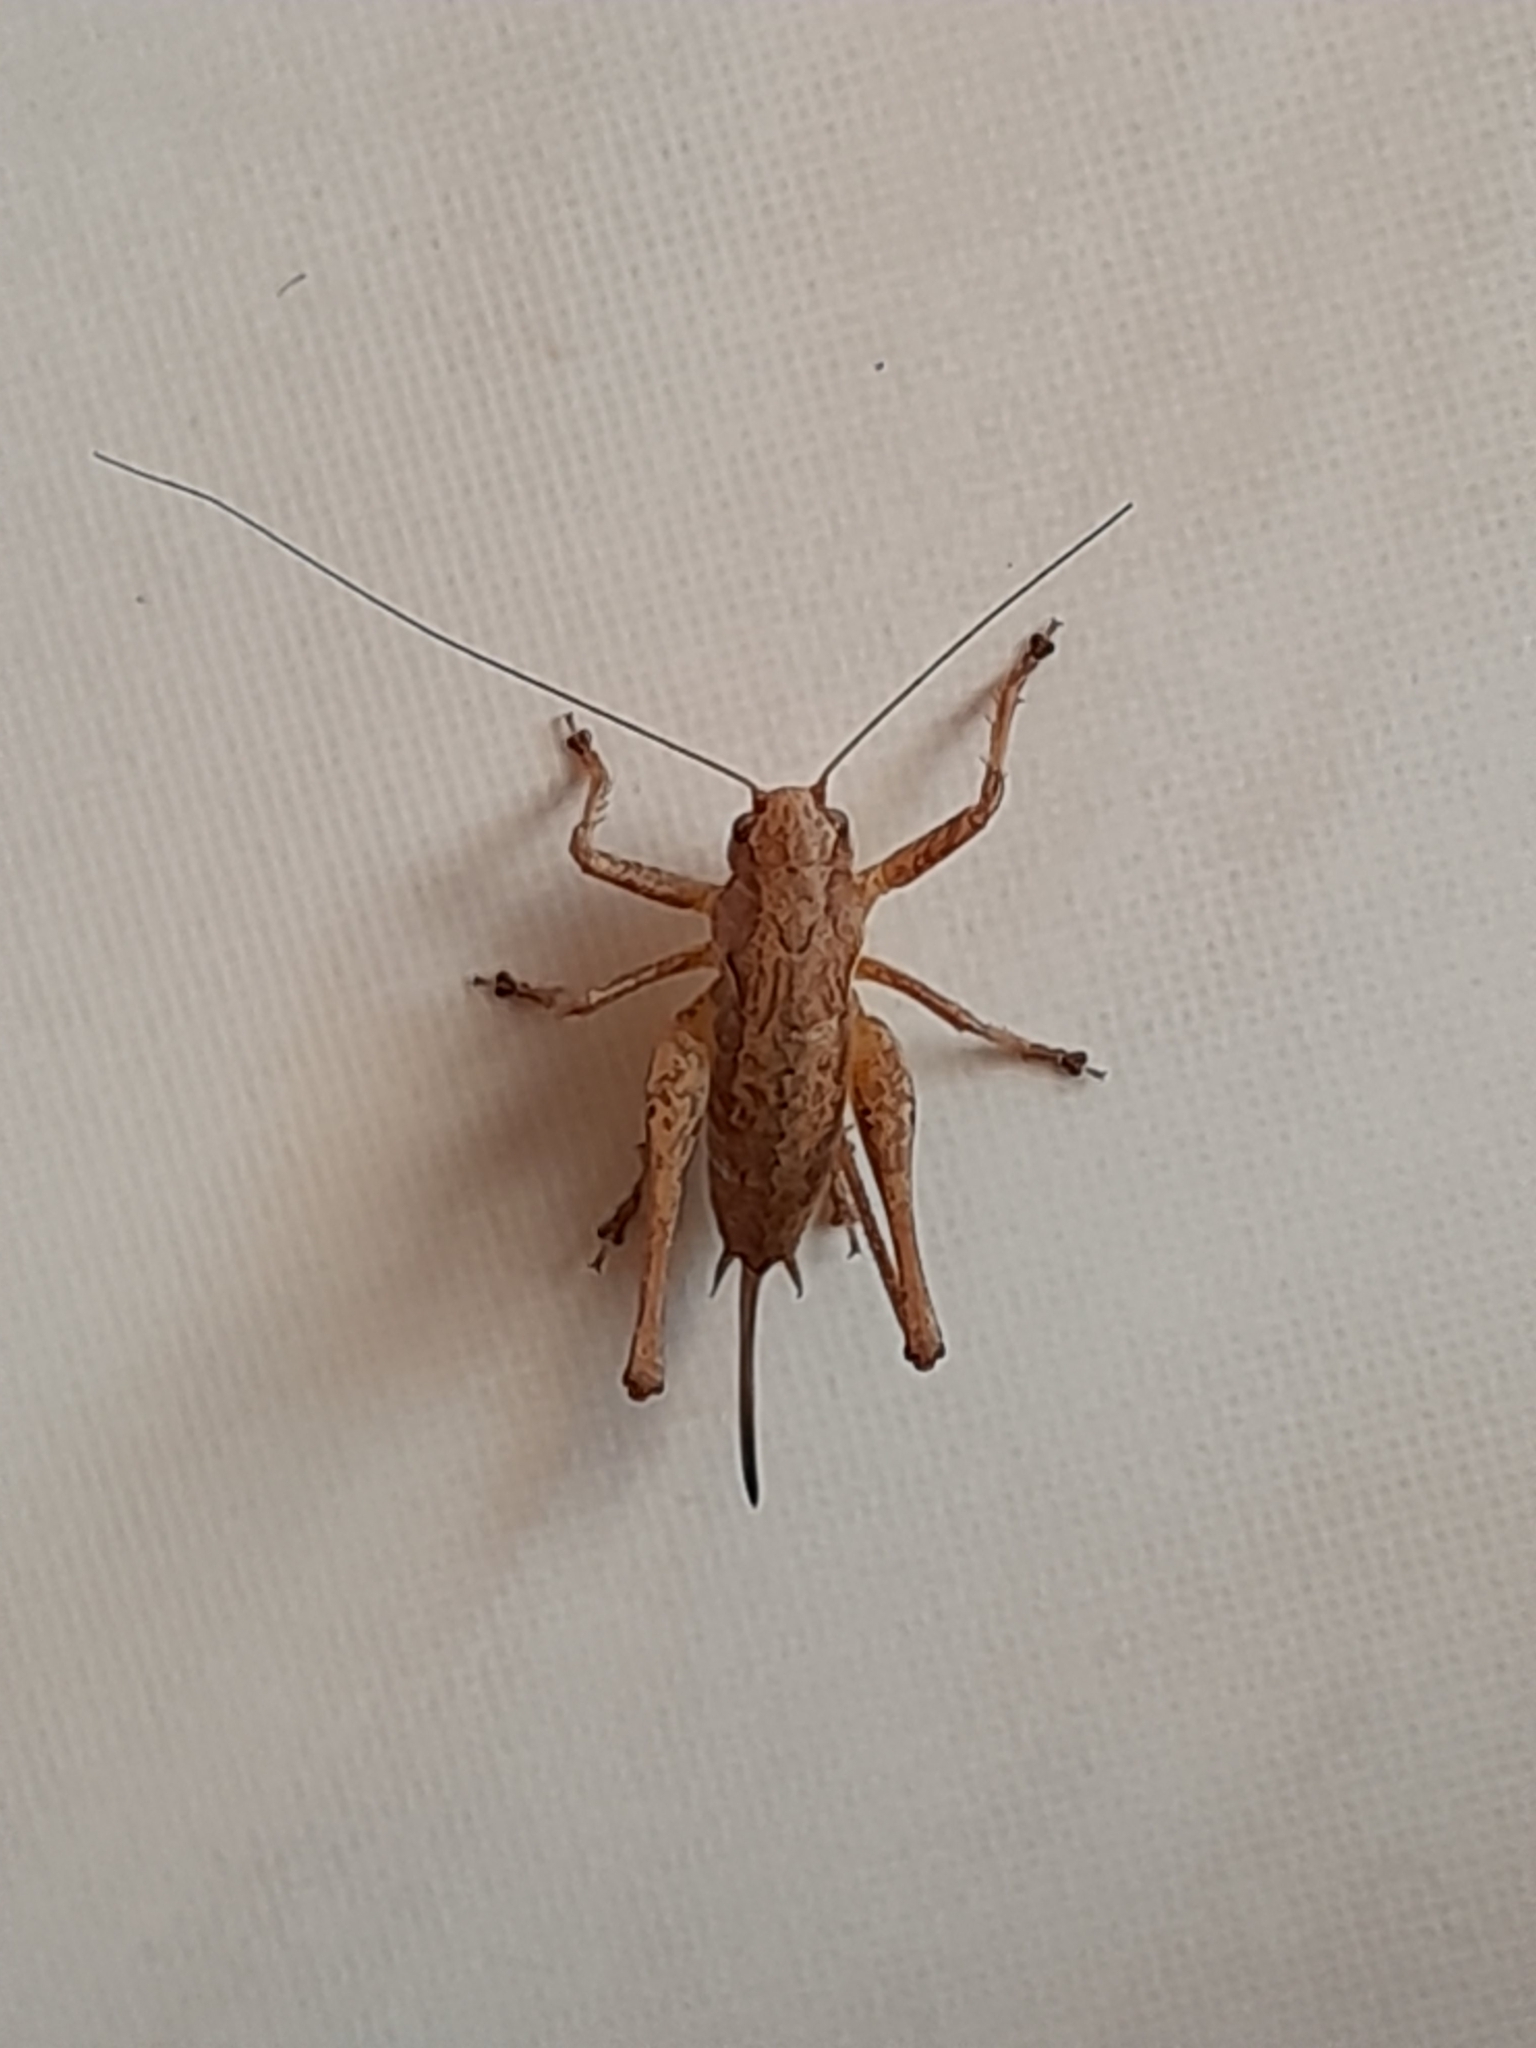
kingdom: Animalia
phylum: Arthropoda
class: Insecta
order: Orthoptera
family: Tettigoniidae
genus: Pholidoptera
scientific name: Pholidoptera griseoaptera
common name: Dark bush-cricket
